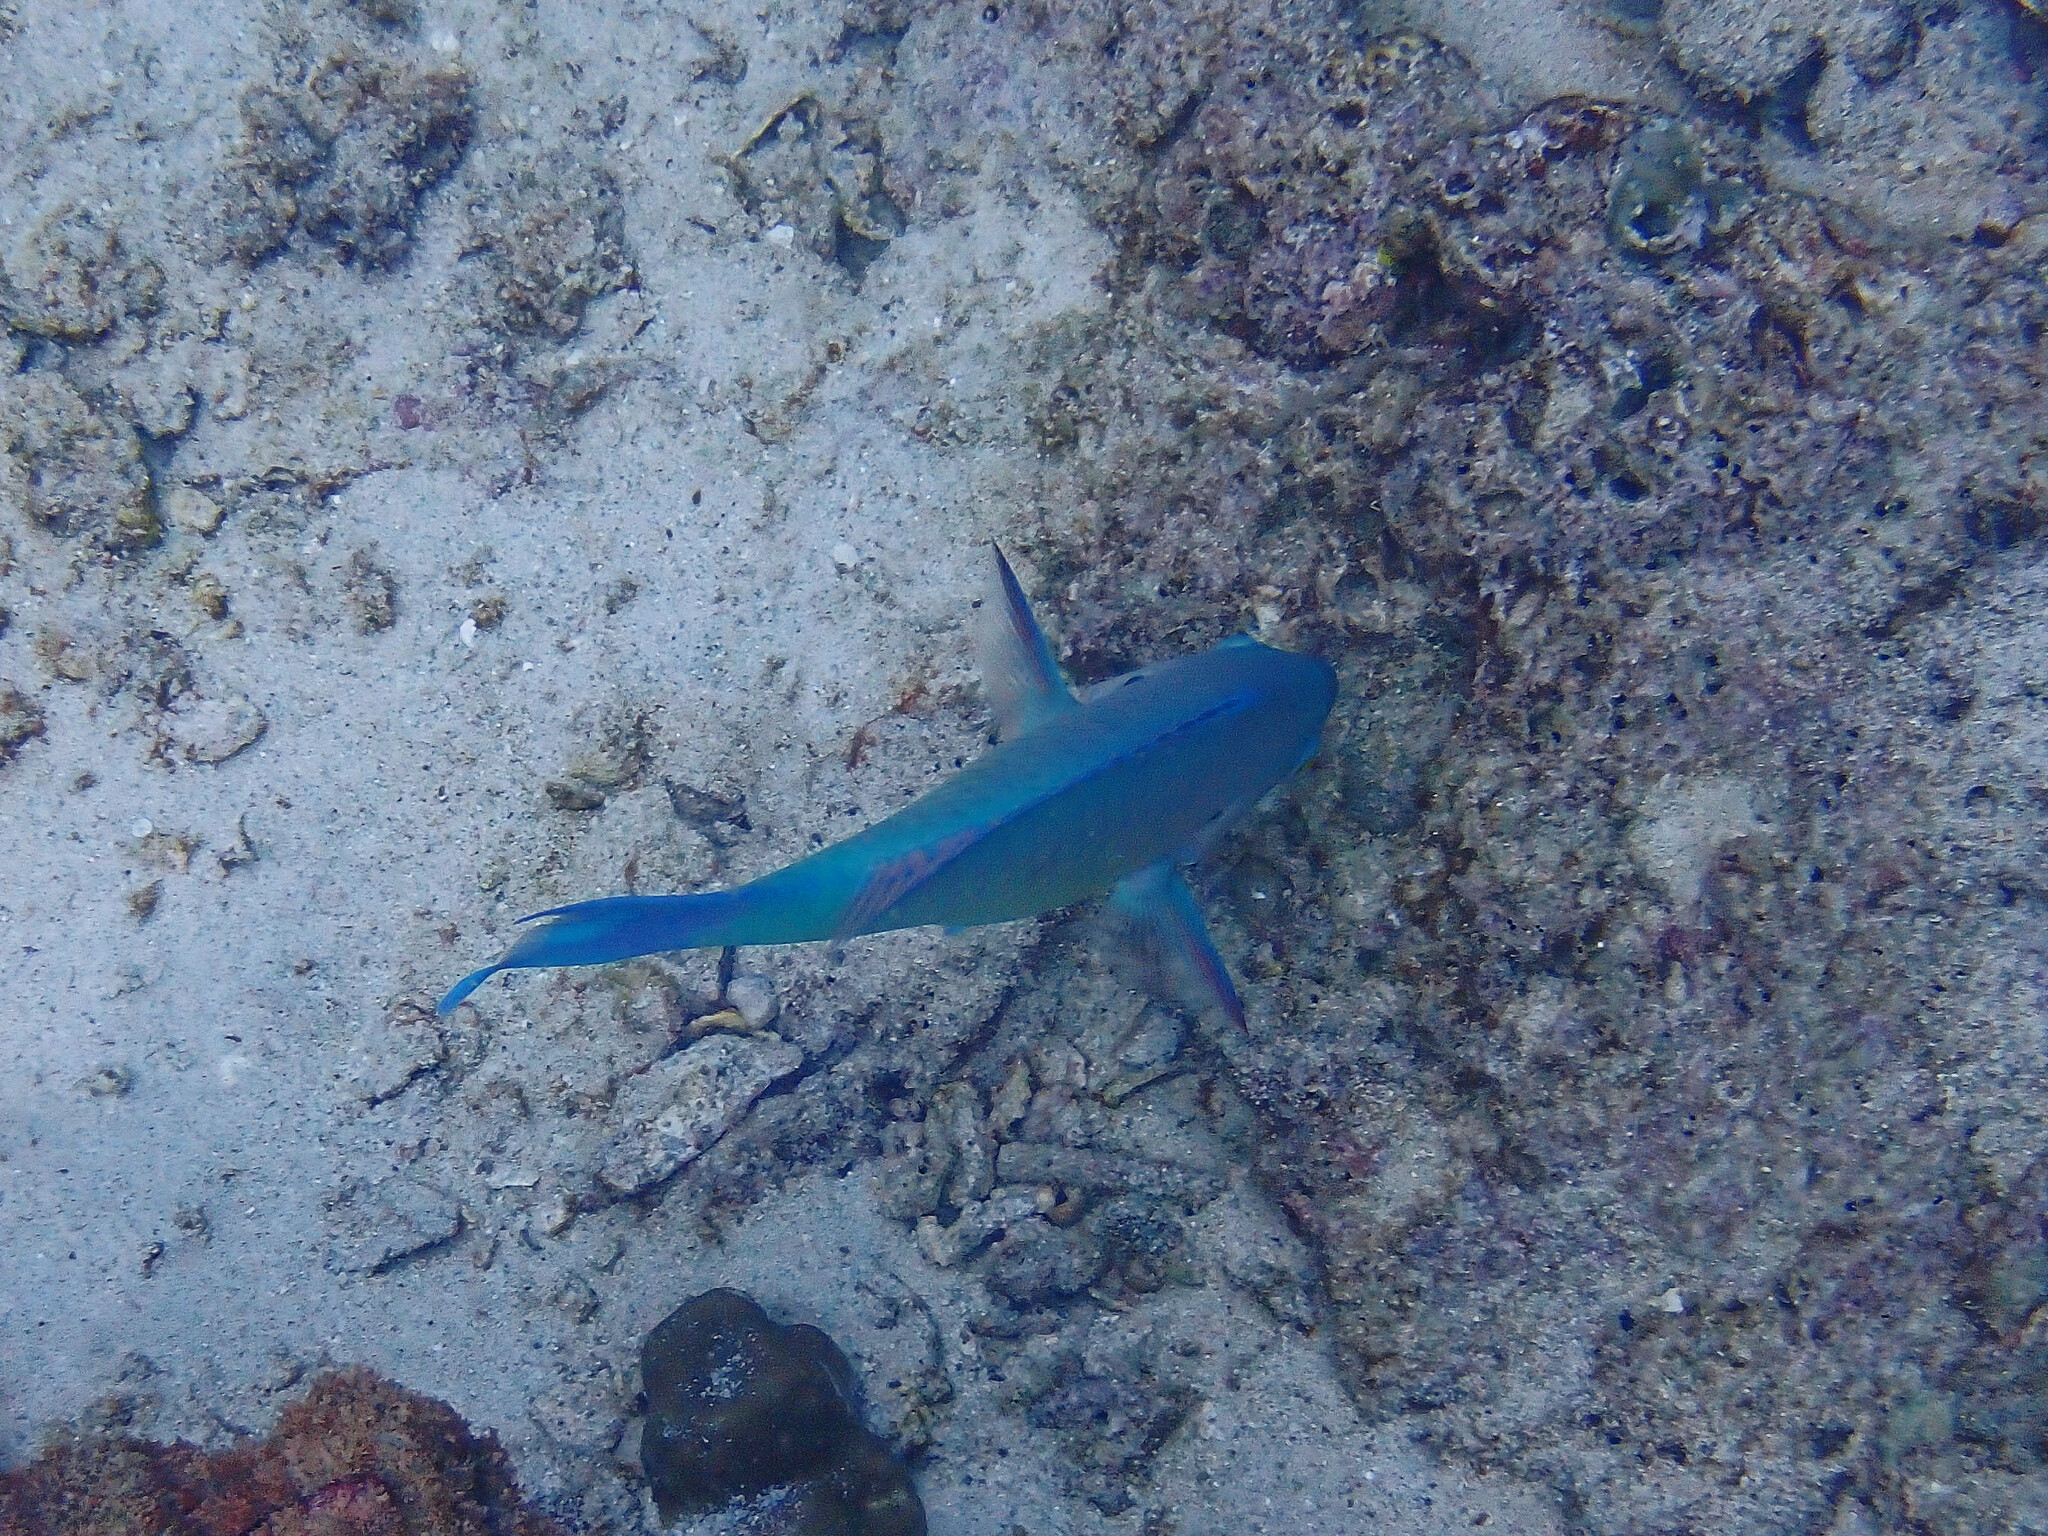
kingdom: Animalia
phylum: Chordata
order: Perciformes
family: Scaridae
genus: Chlorurus
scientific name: Chlorurus sordidus
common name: Bullethead parrotfish
